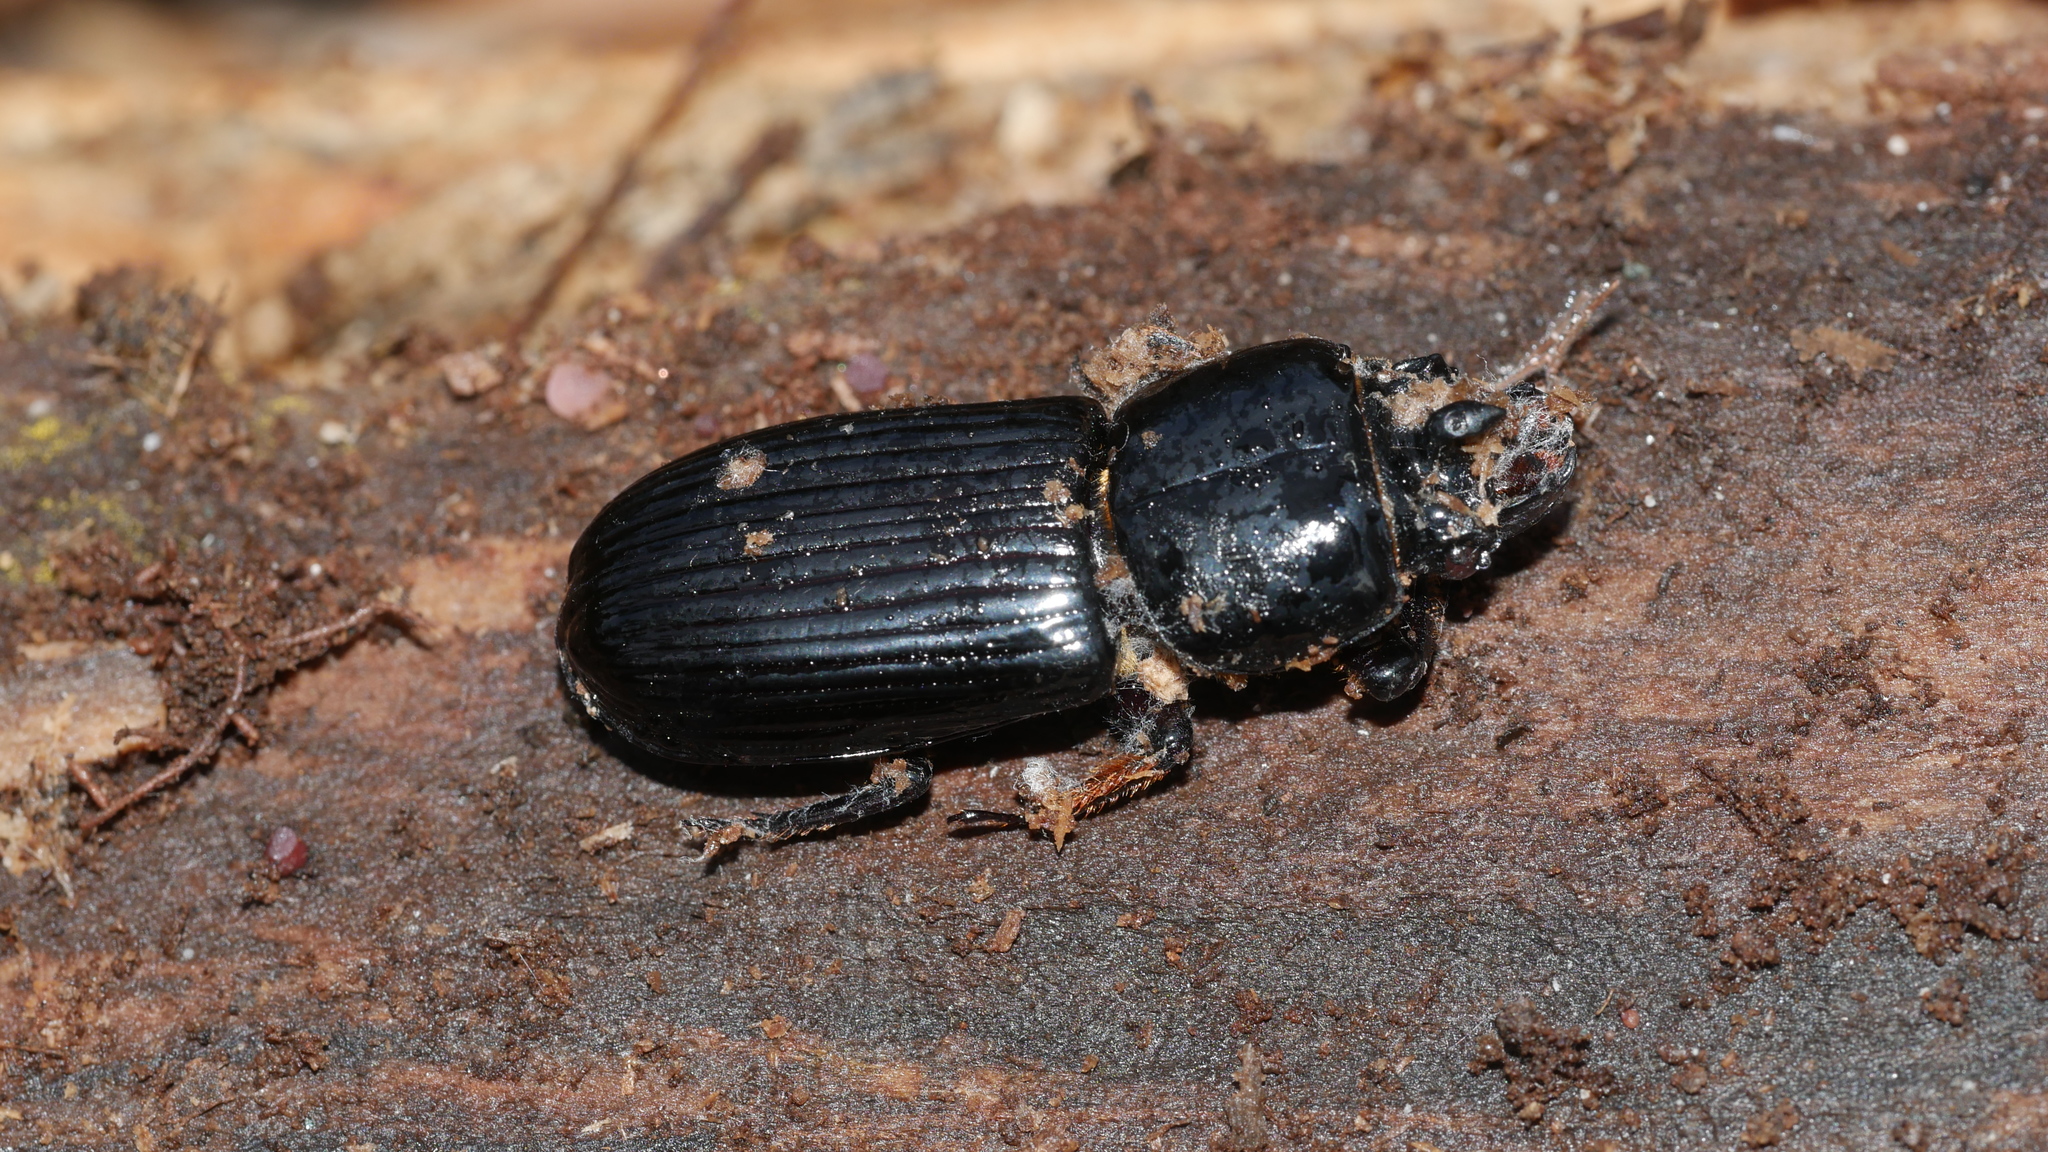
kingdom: Animalia
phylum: Arthropoda
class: Insecta
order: Coleoptera
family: Passalidae
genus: Odontotaenius
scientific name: Odontotaenius disjunctus
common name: Patent leather beetle
